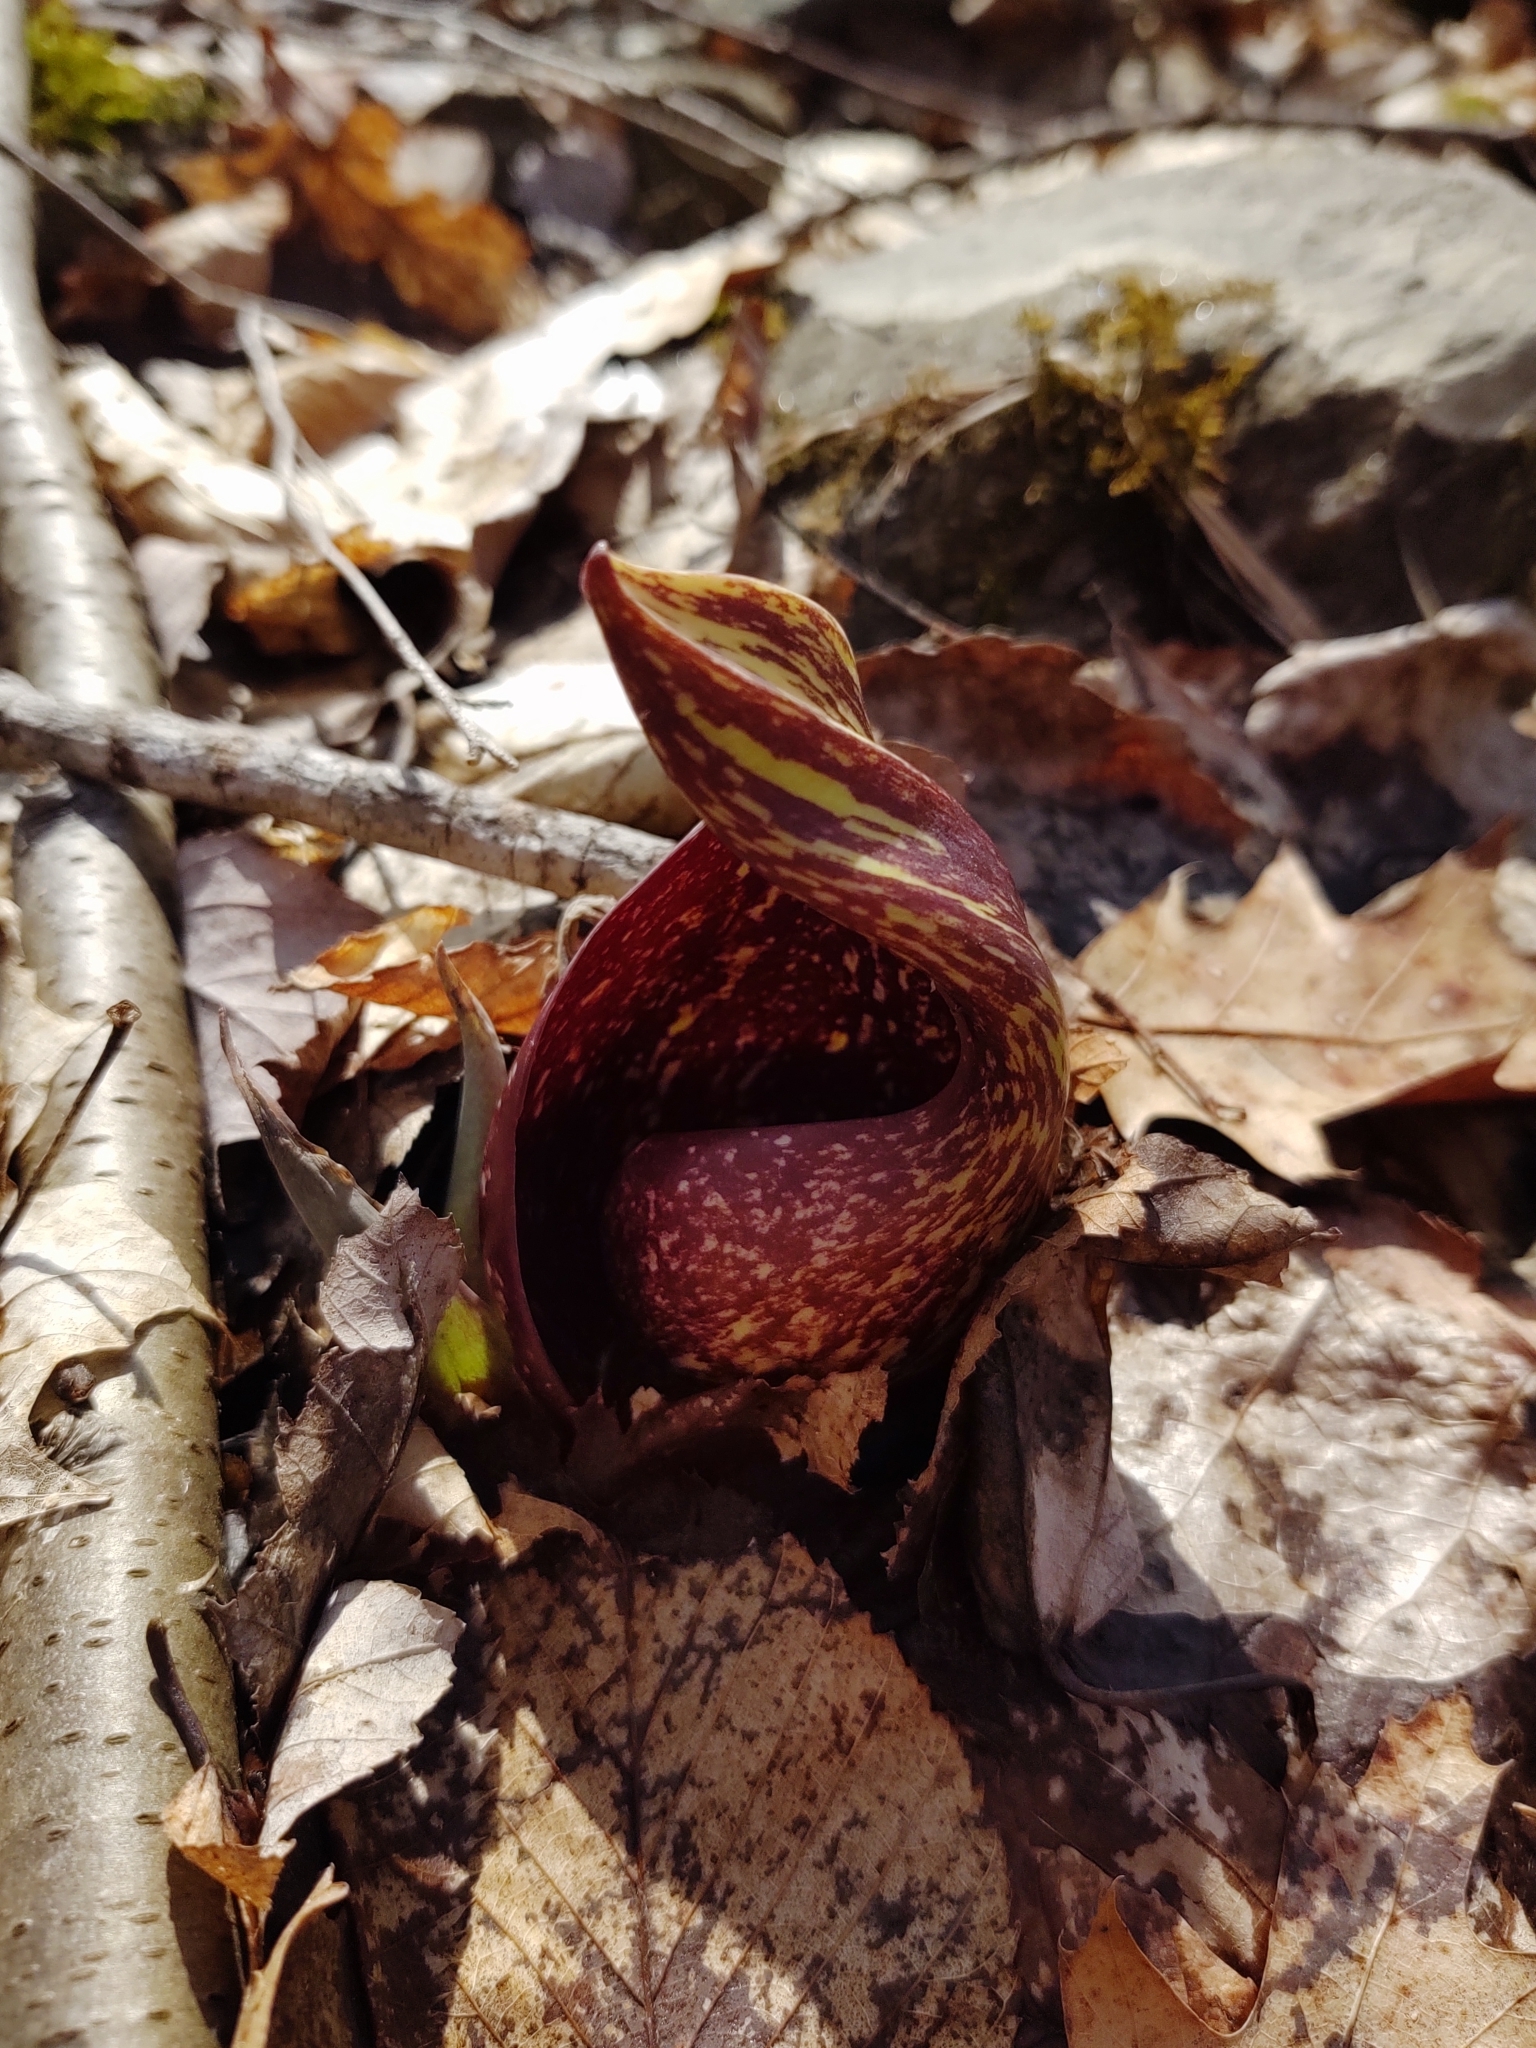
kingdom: Plantae
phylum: Tracheophyta
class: Liliopsida
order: Alismatales
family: Araceae
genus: Symplocarpus
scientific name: Symplocarpus foetidus
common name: Eastern skunk cabbage
